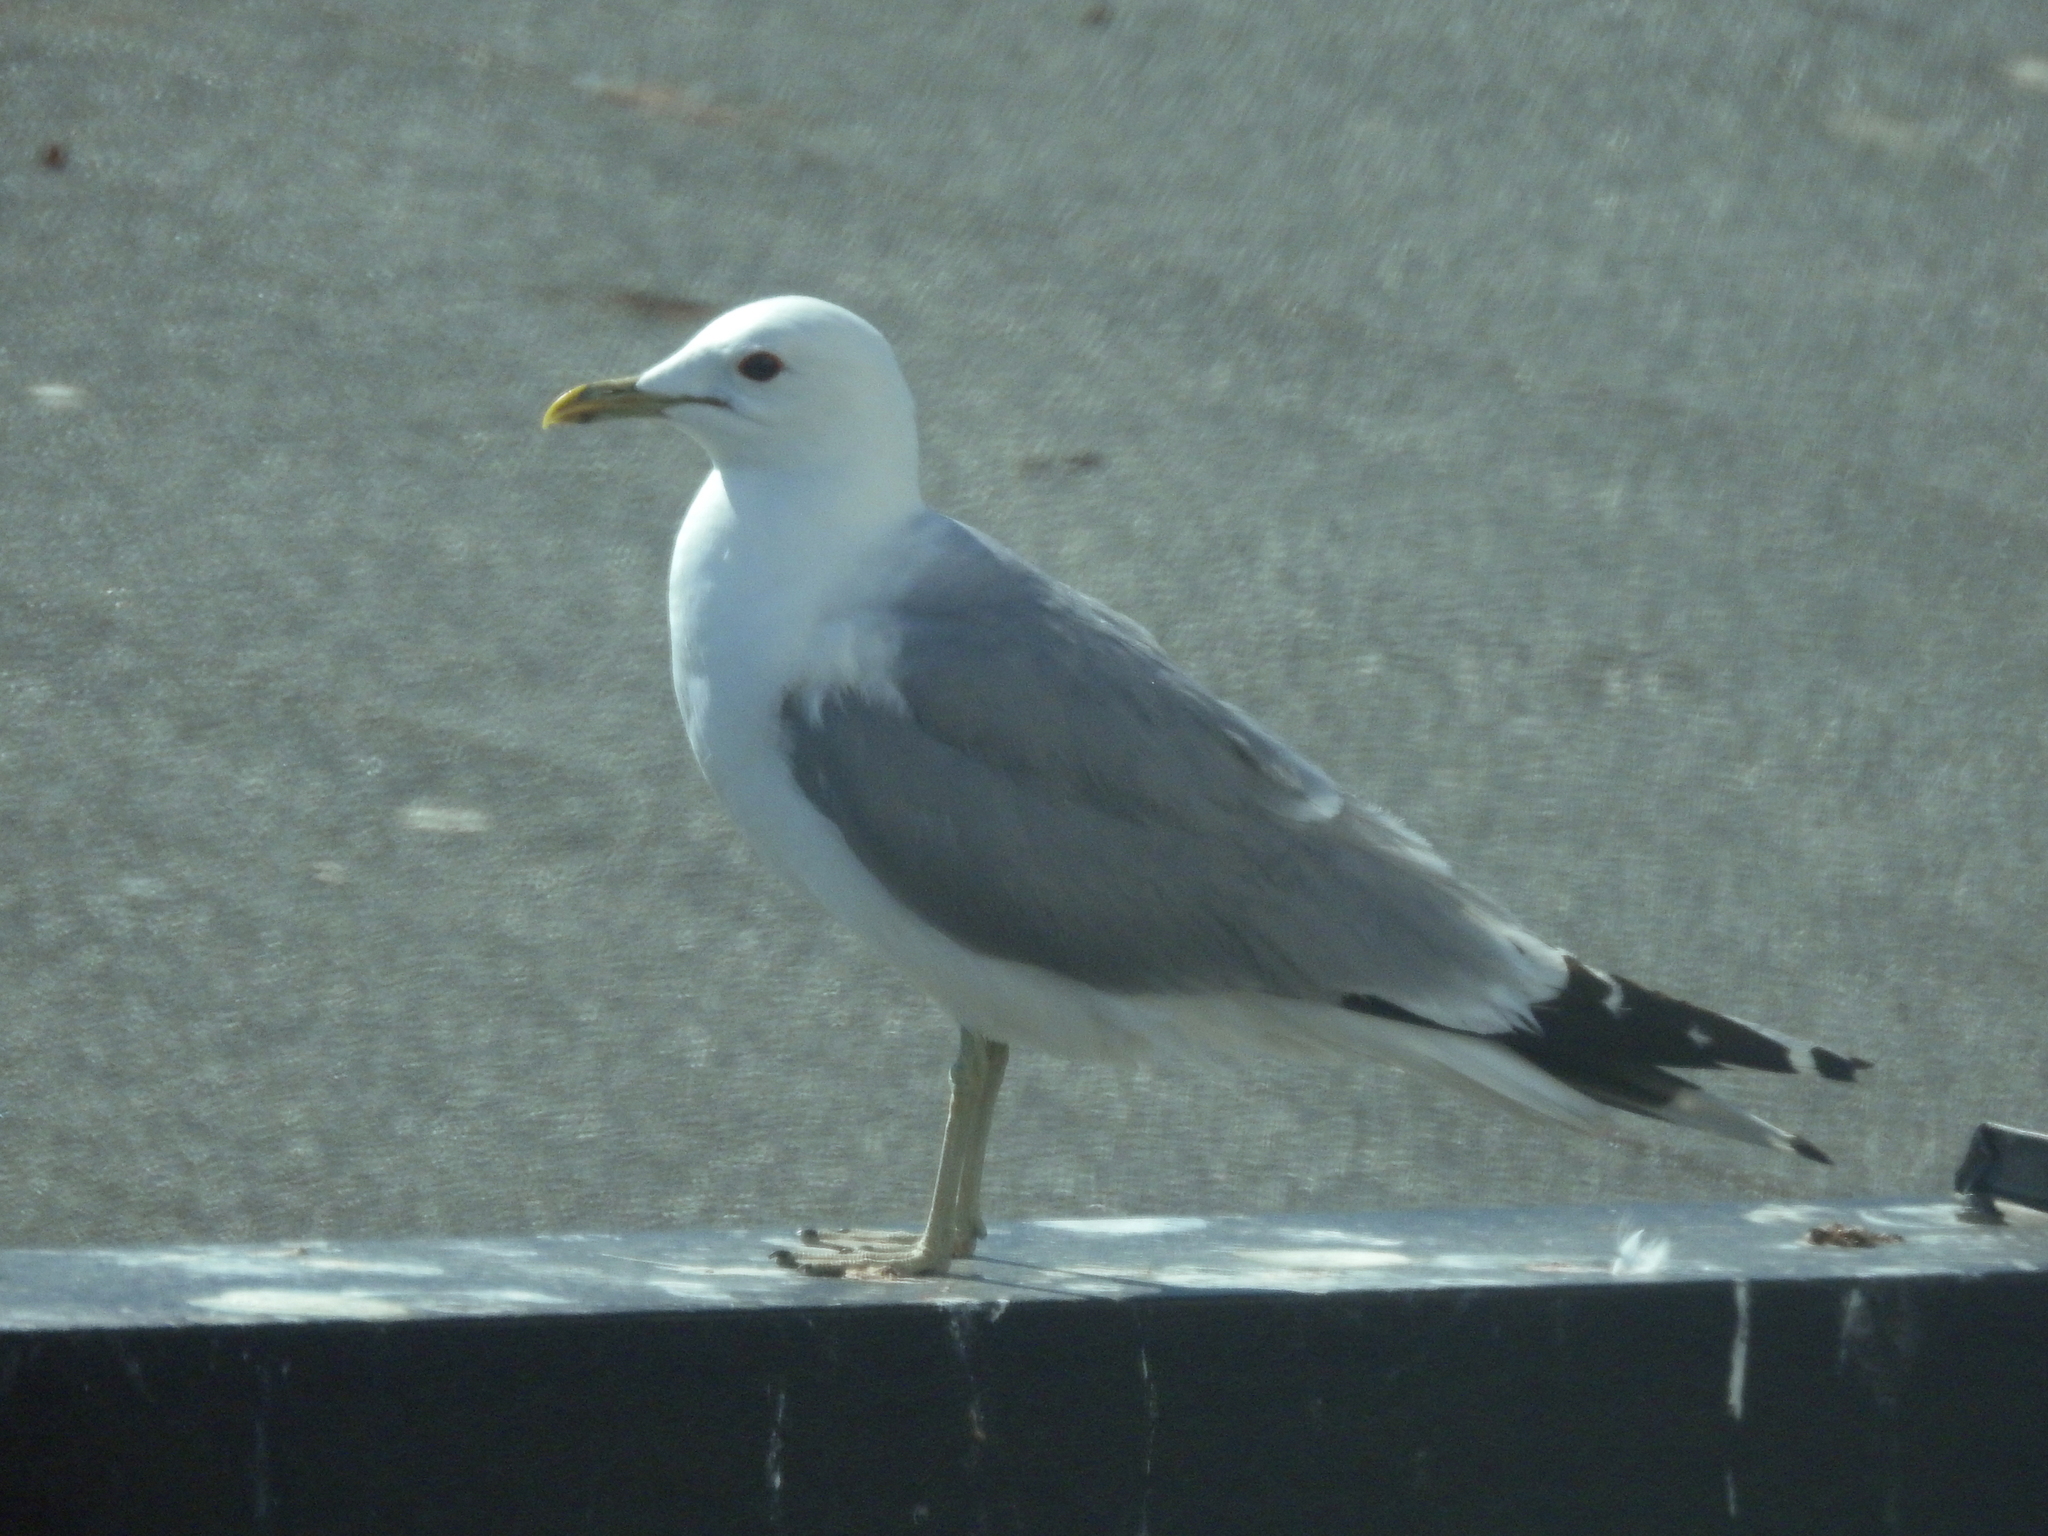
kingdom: Animalia
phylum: Chordata
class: Aves
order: Charadriiformes
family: Laridae
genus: Larus
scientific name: Larus canus
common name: Mew gull
